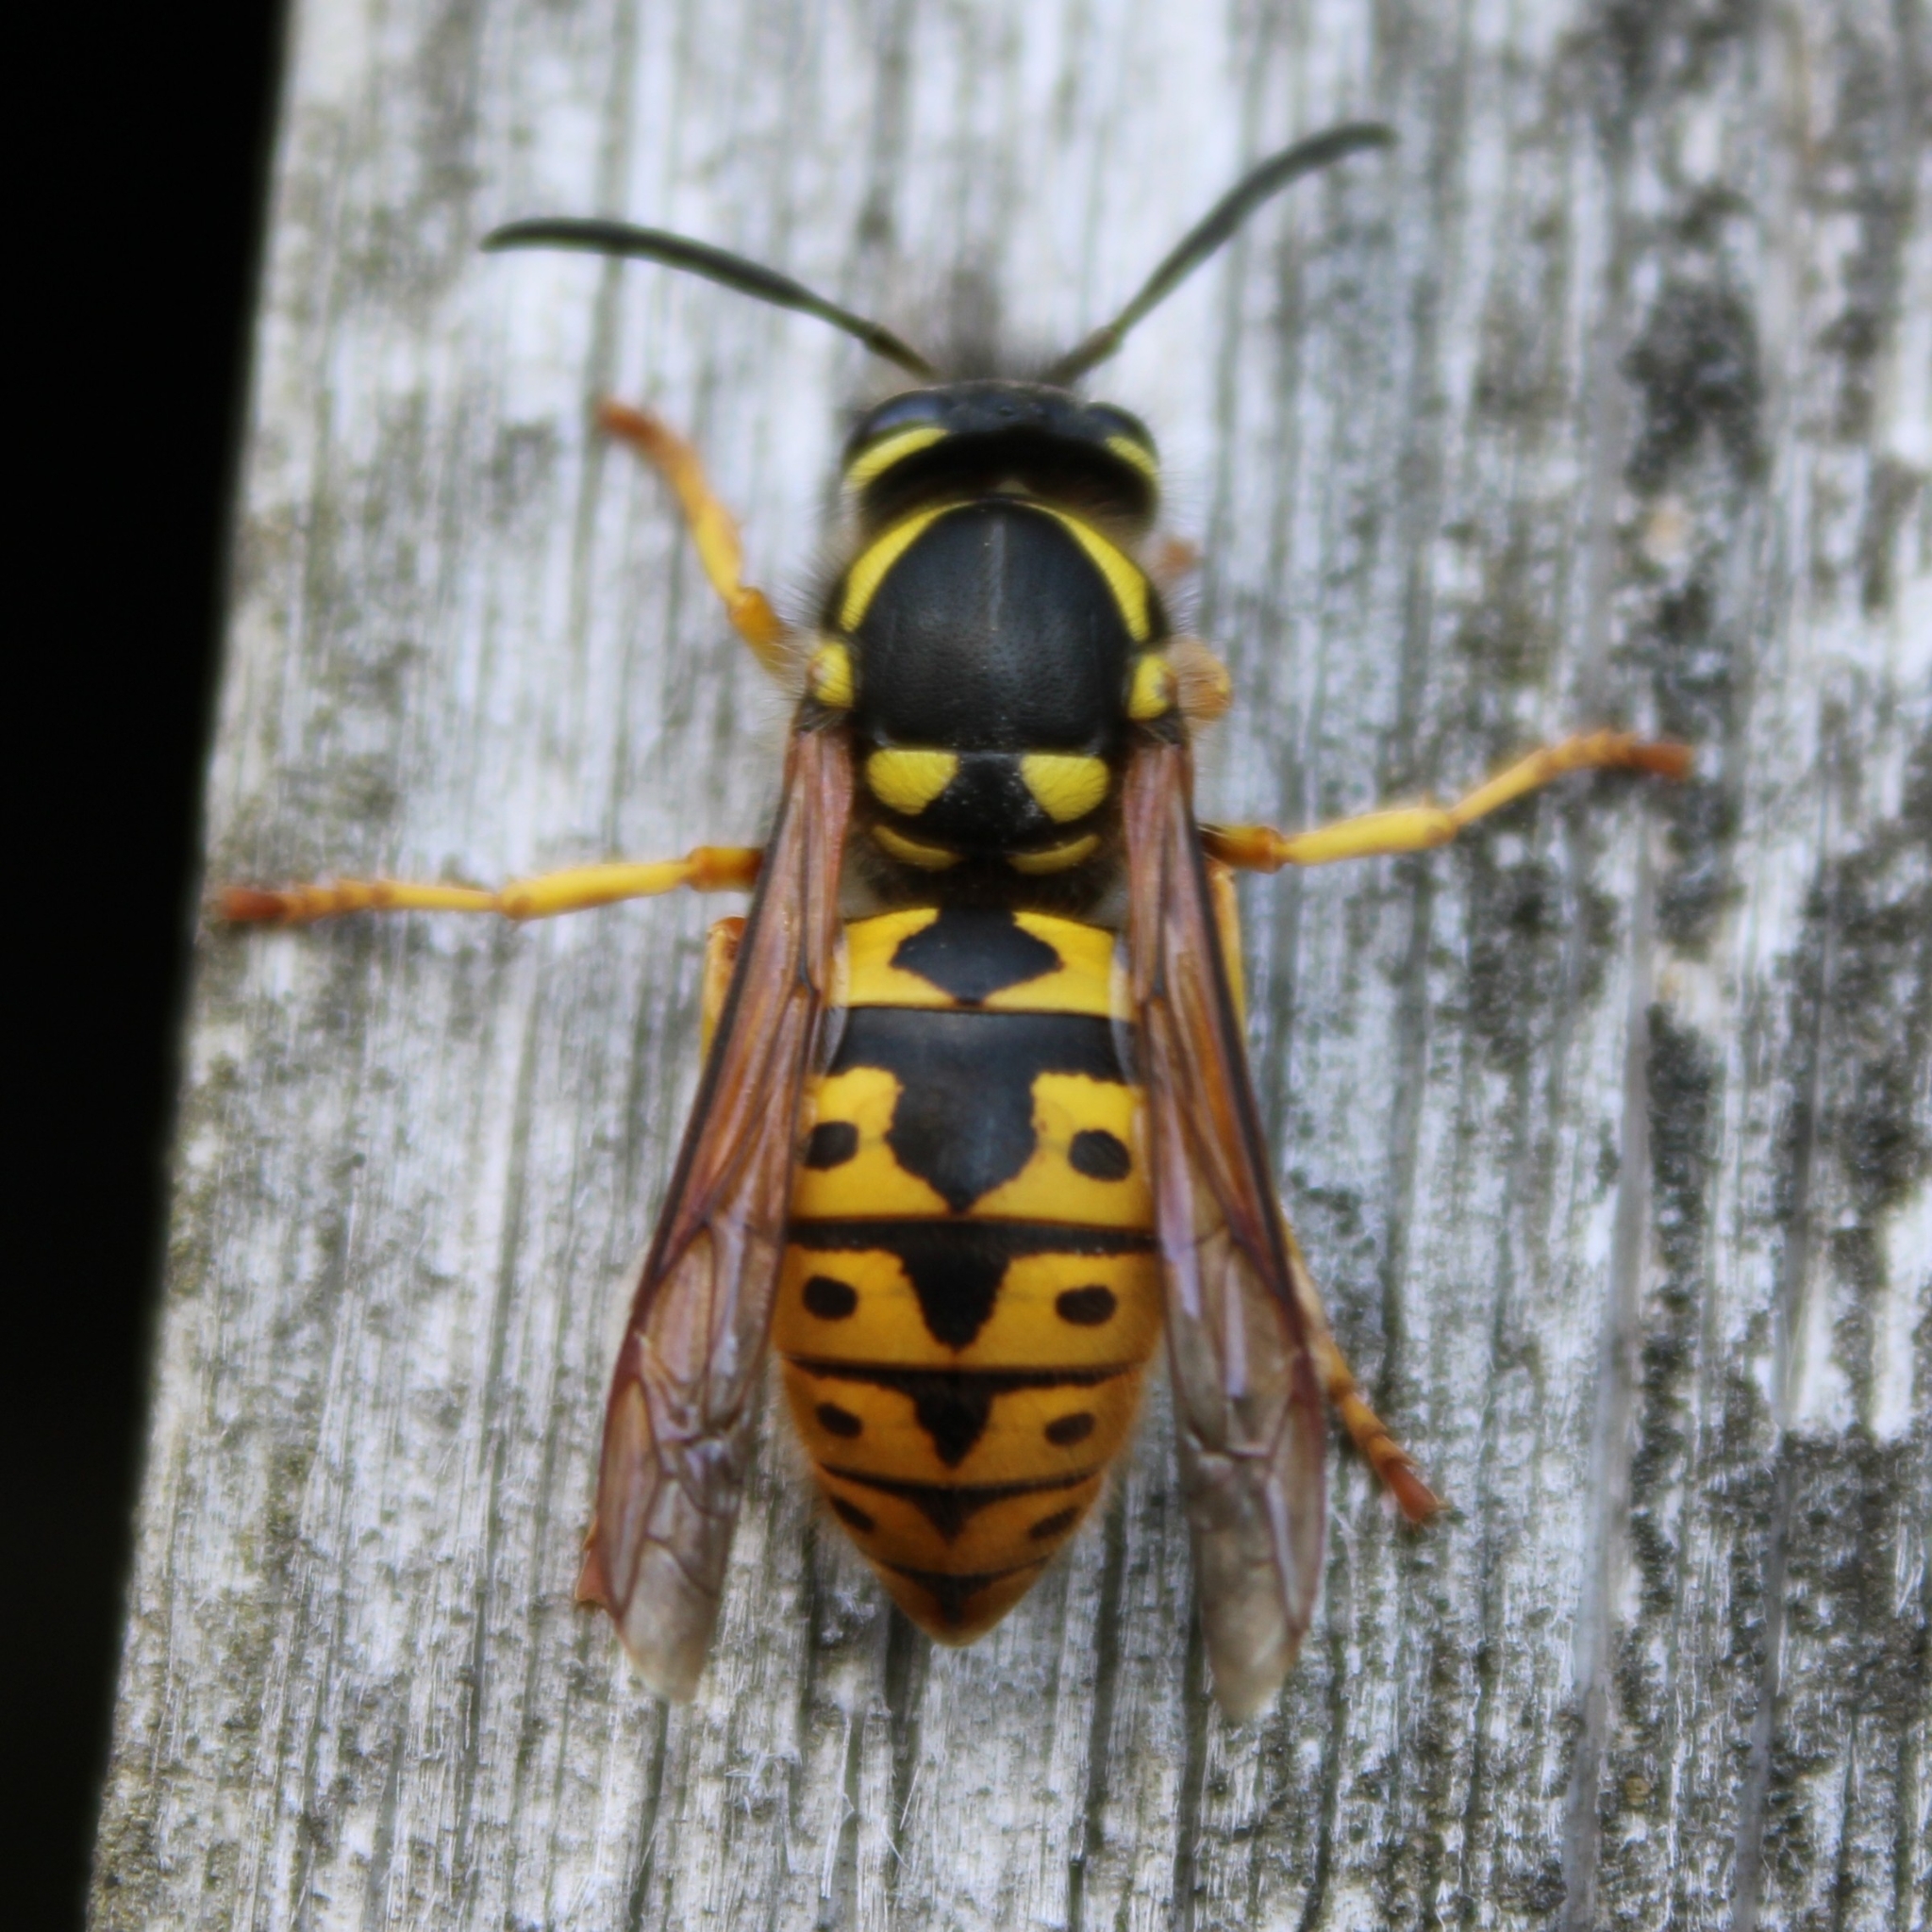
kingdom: Animalia
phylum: Arthropoda
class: Insecta
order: Hymenoptera
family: Vespidae
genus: Vespula
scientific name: Vespula germanica
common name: German wasp
